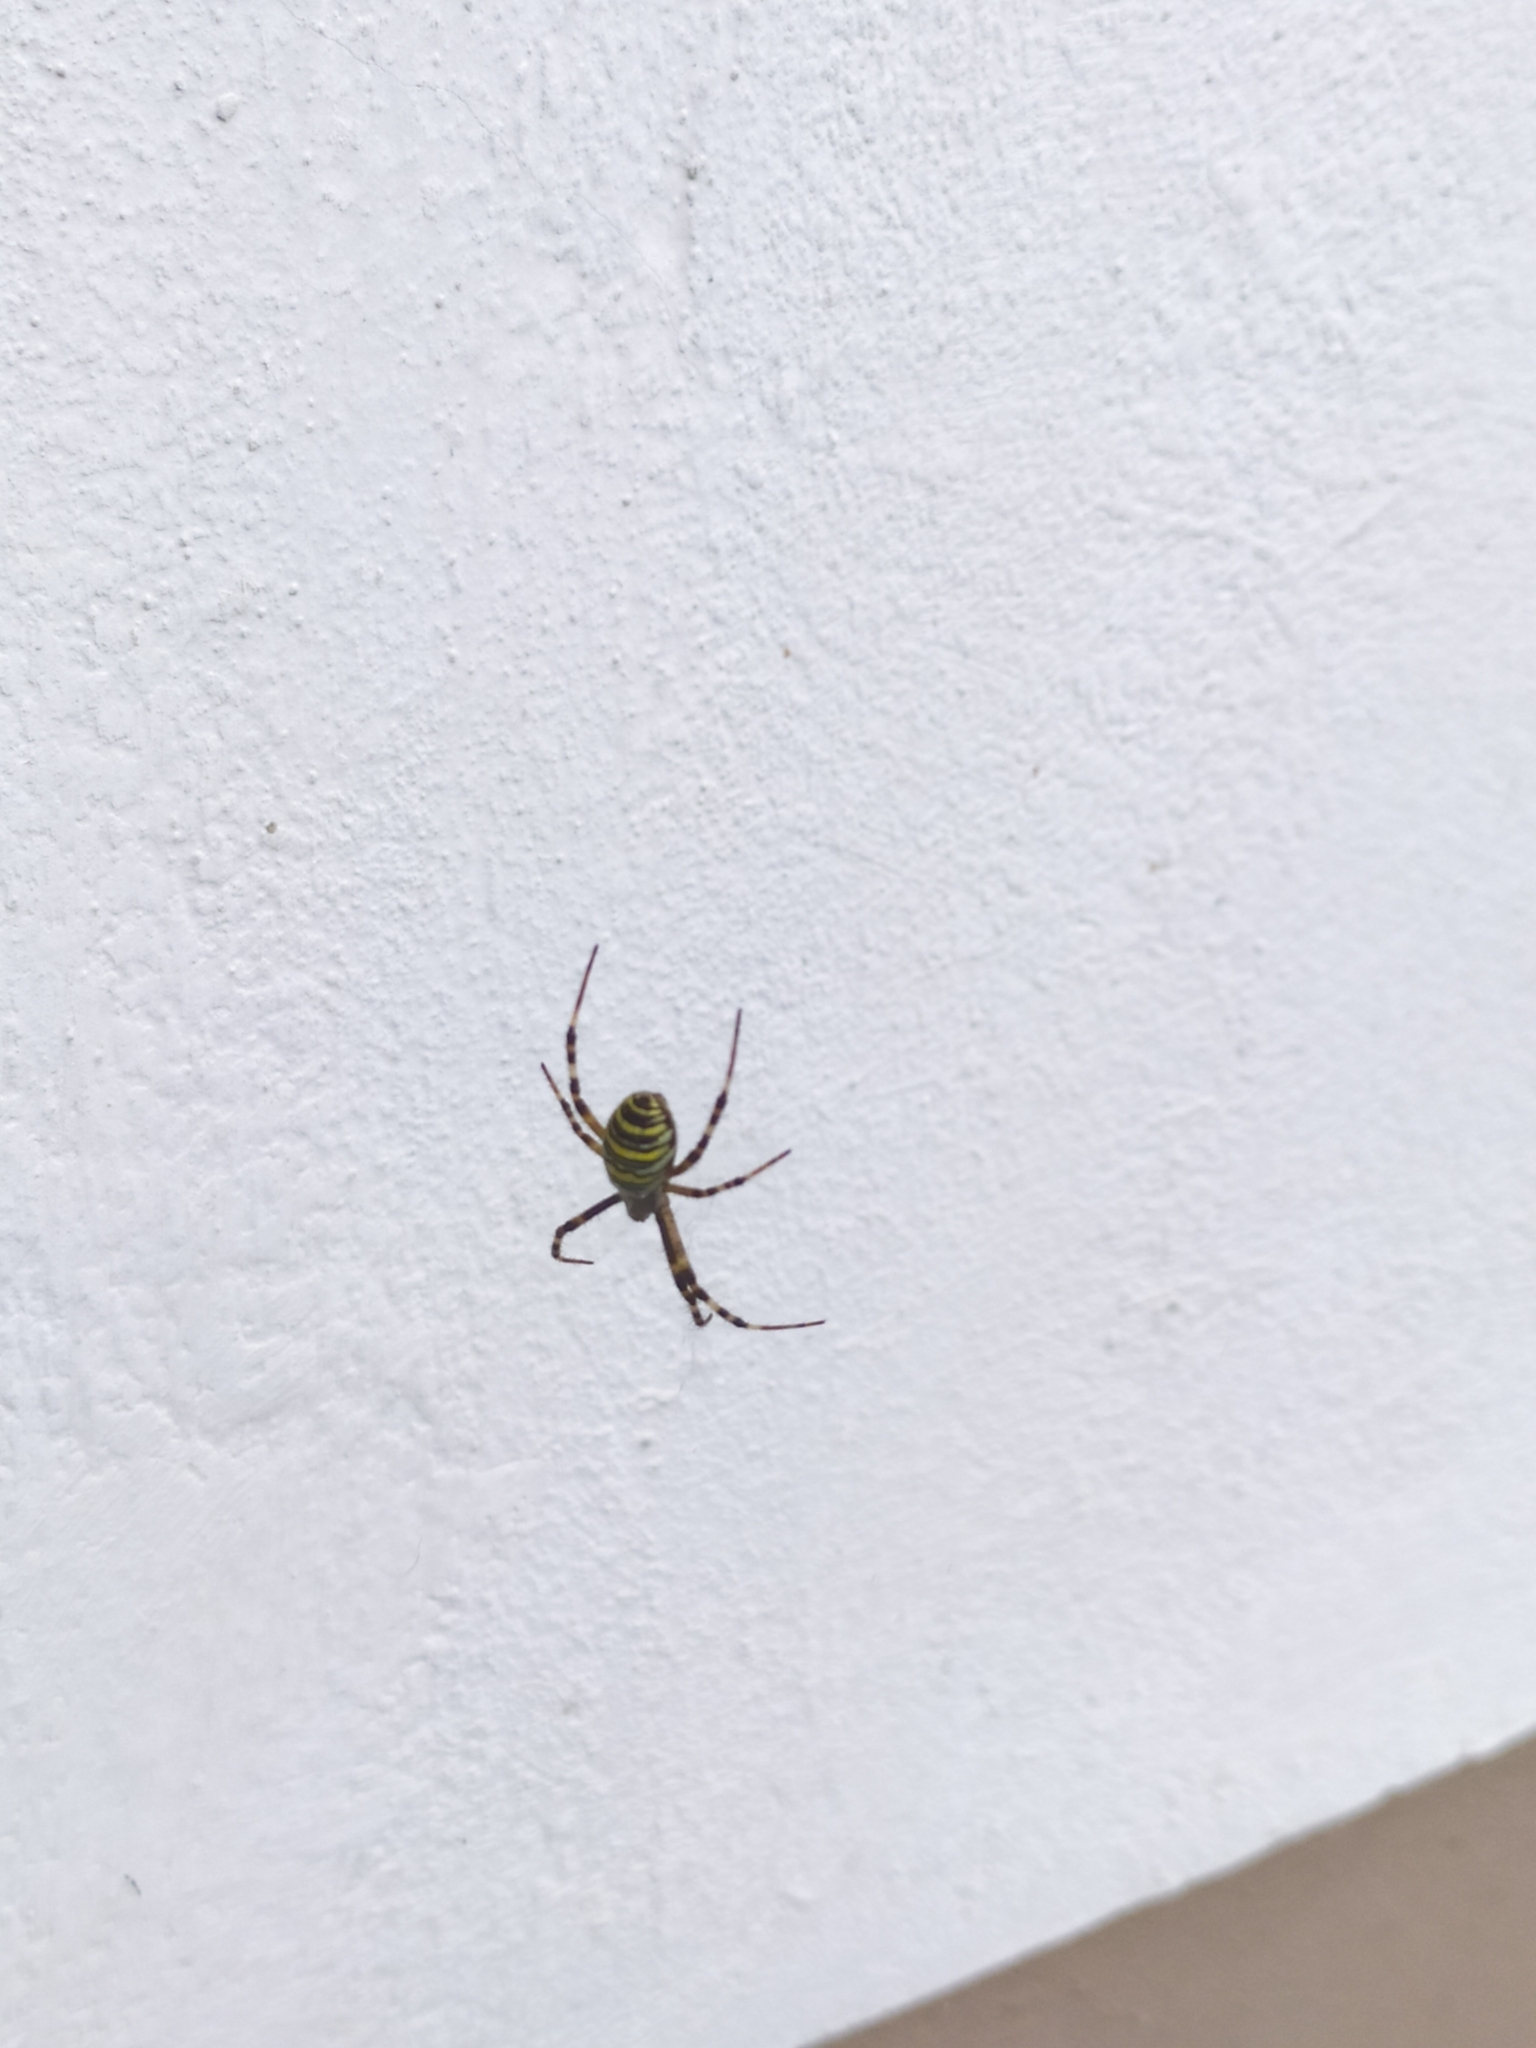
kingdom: Animalia
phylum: Arthropoda
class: Arachnida
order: Araneae
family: Araneidae
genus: Argiope
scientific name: Argiope bruennichi
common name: Wasp spider
